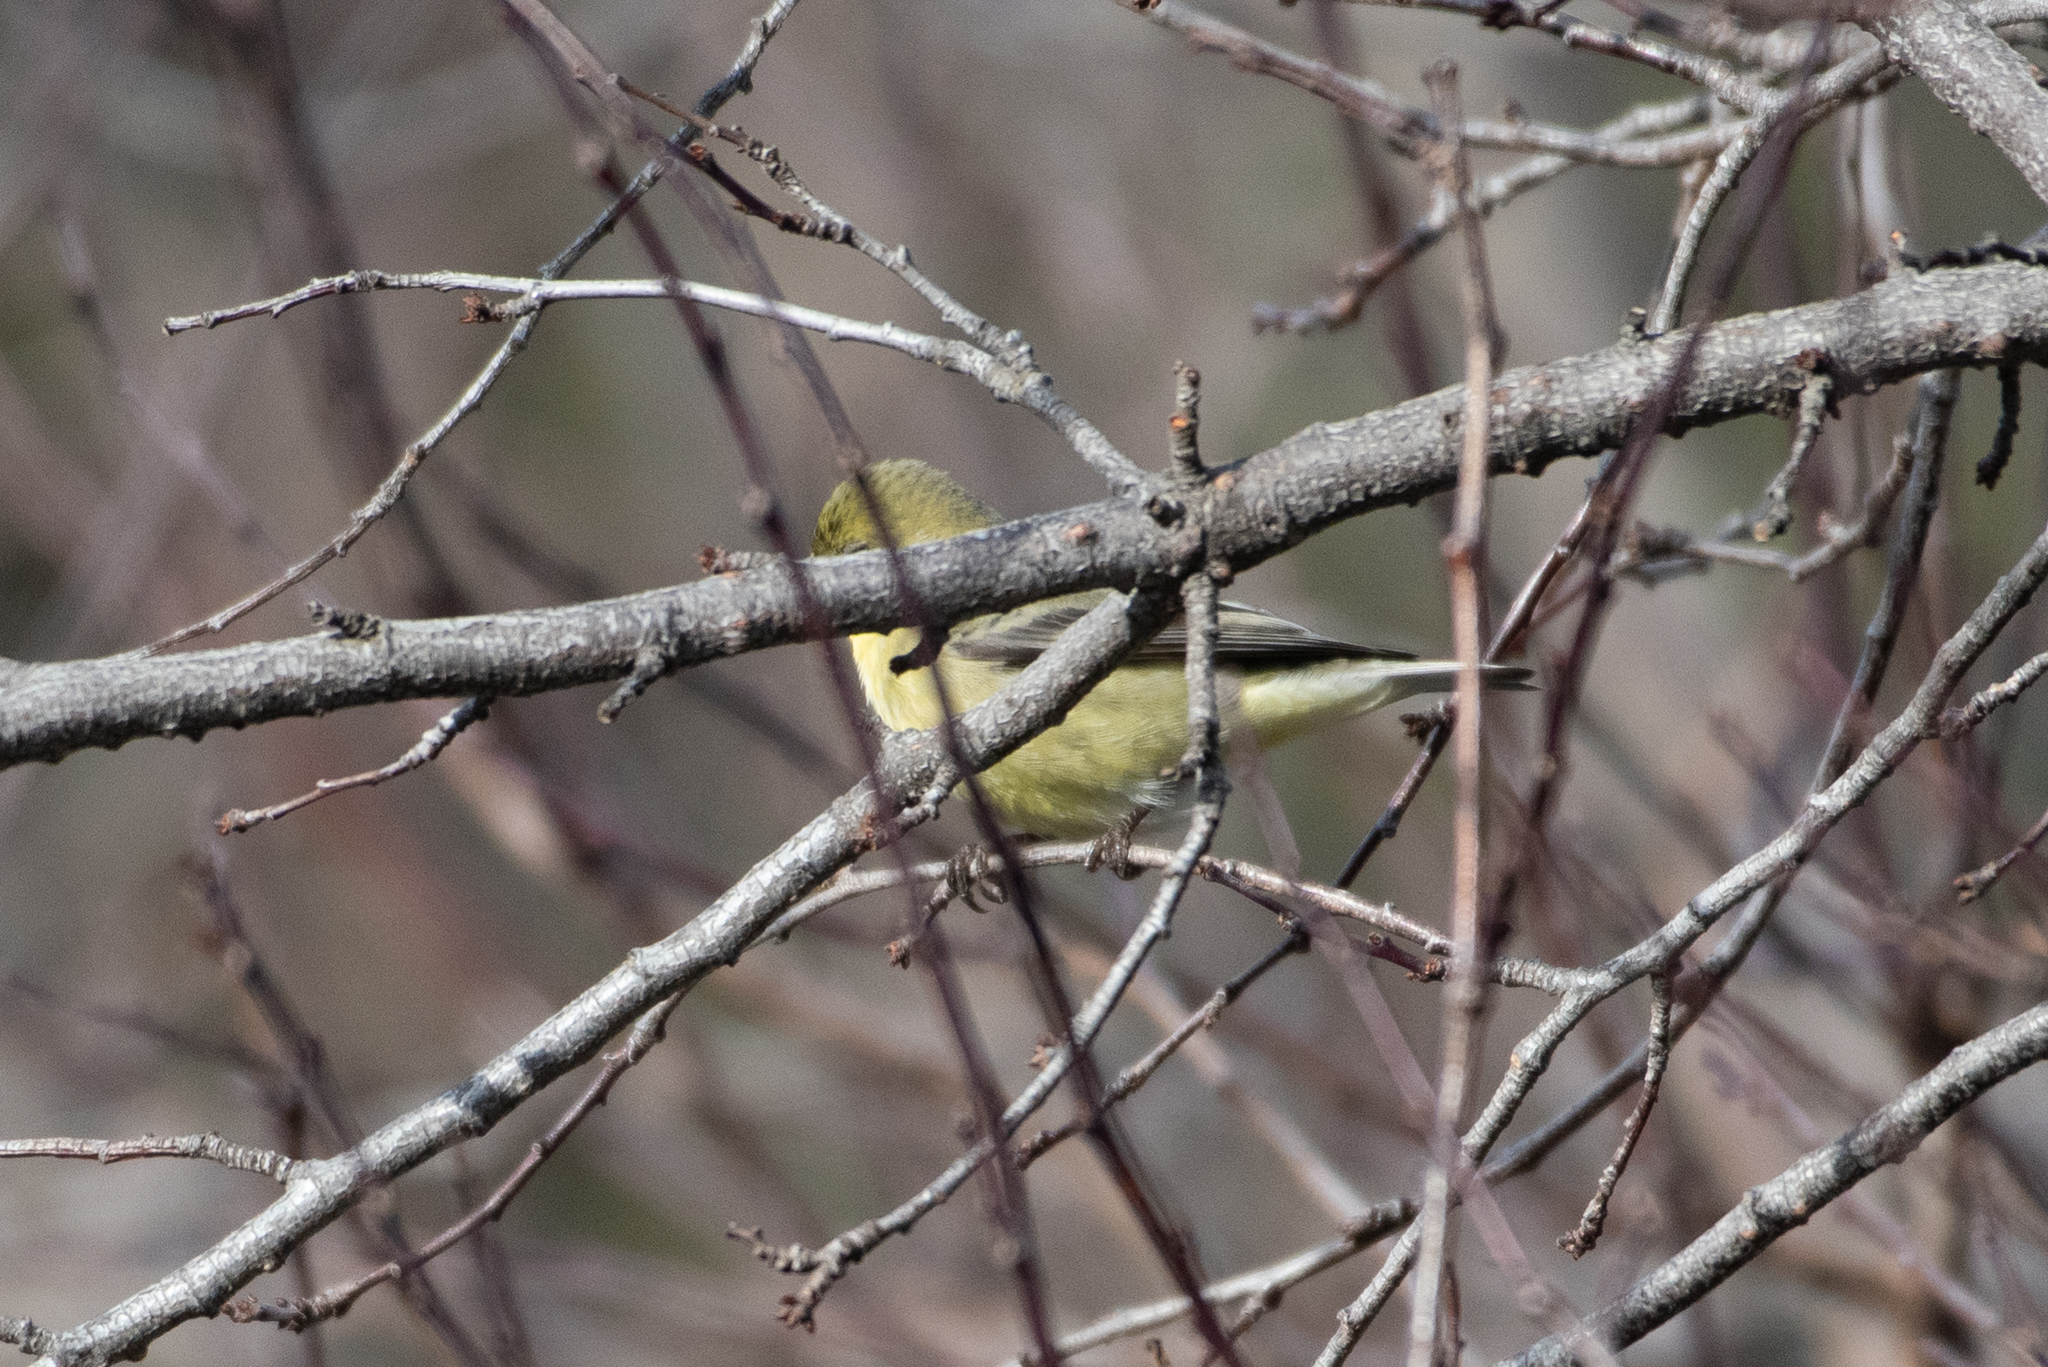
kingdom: Animalia
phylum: Chordata
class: Aves
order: Passeriformes
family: Fringillidae
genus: Spinus
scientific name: Spinus psaltria
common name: Lesser goldfinch
